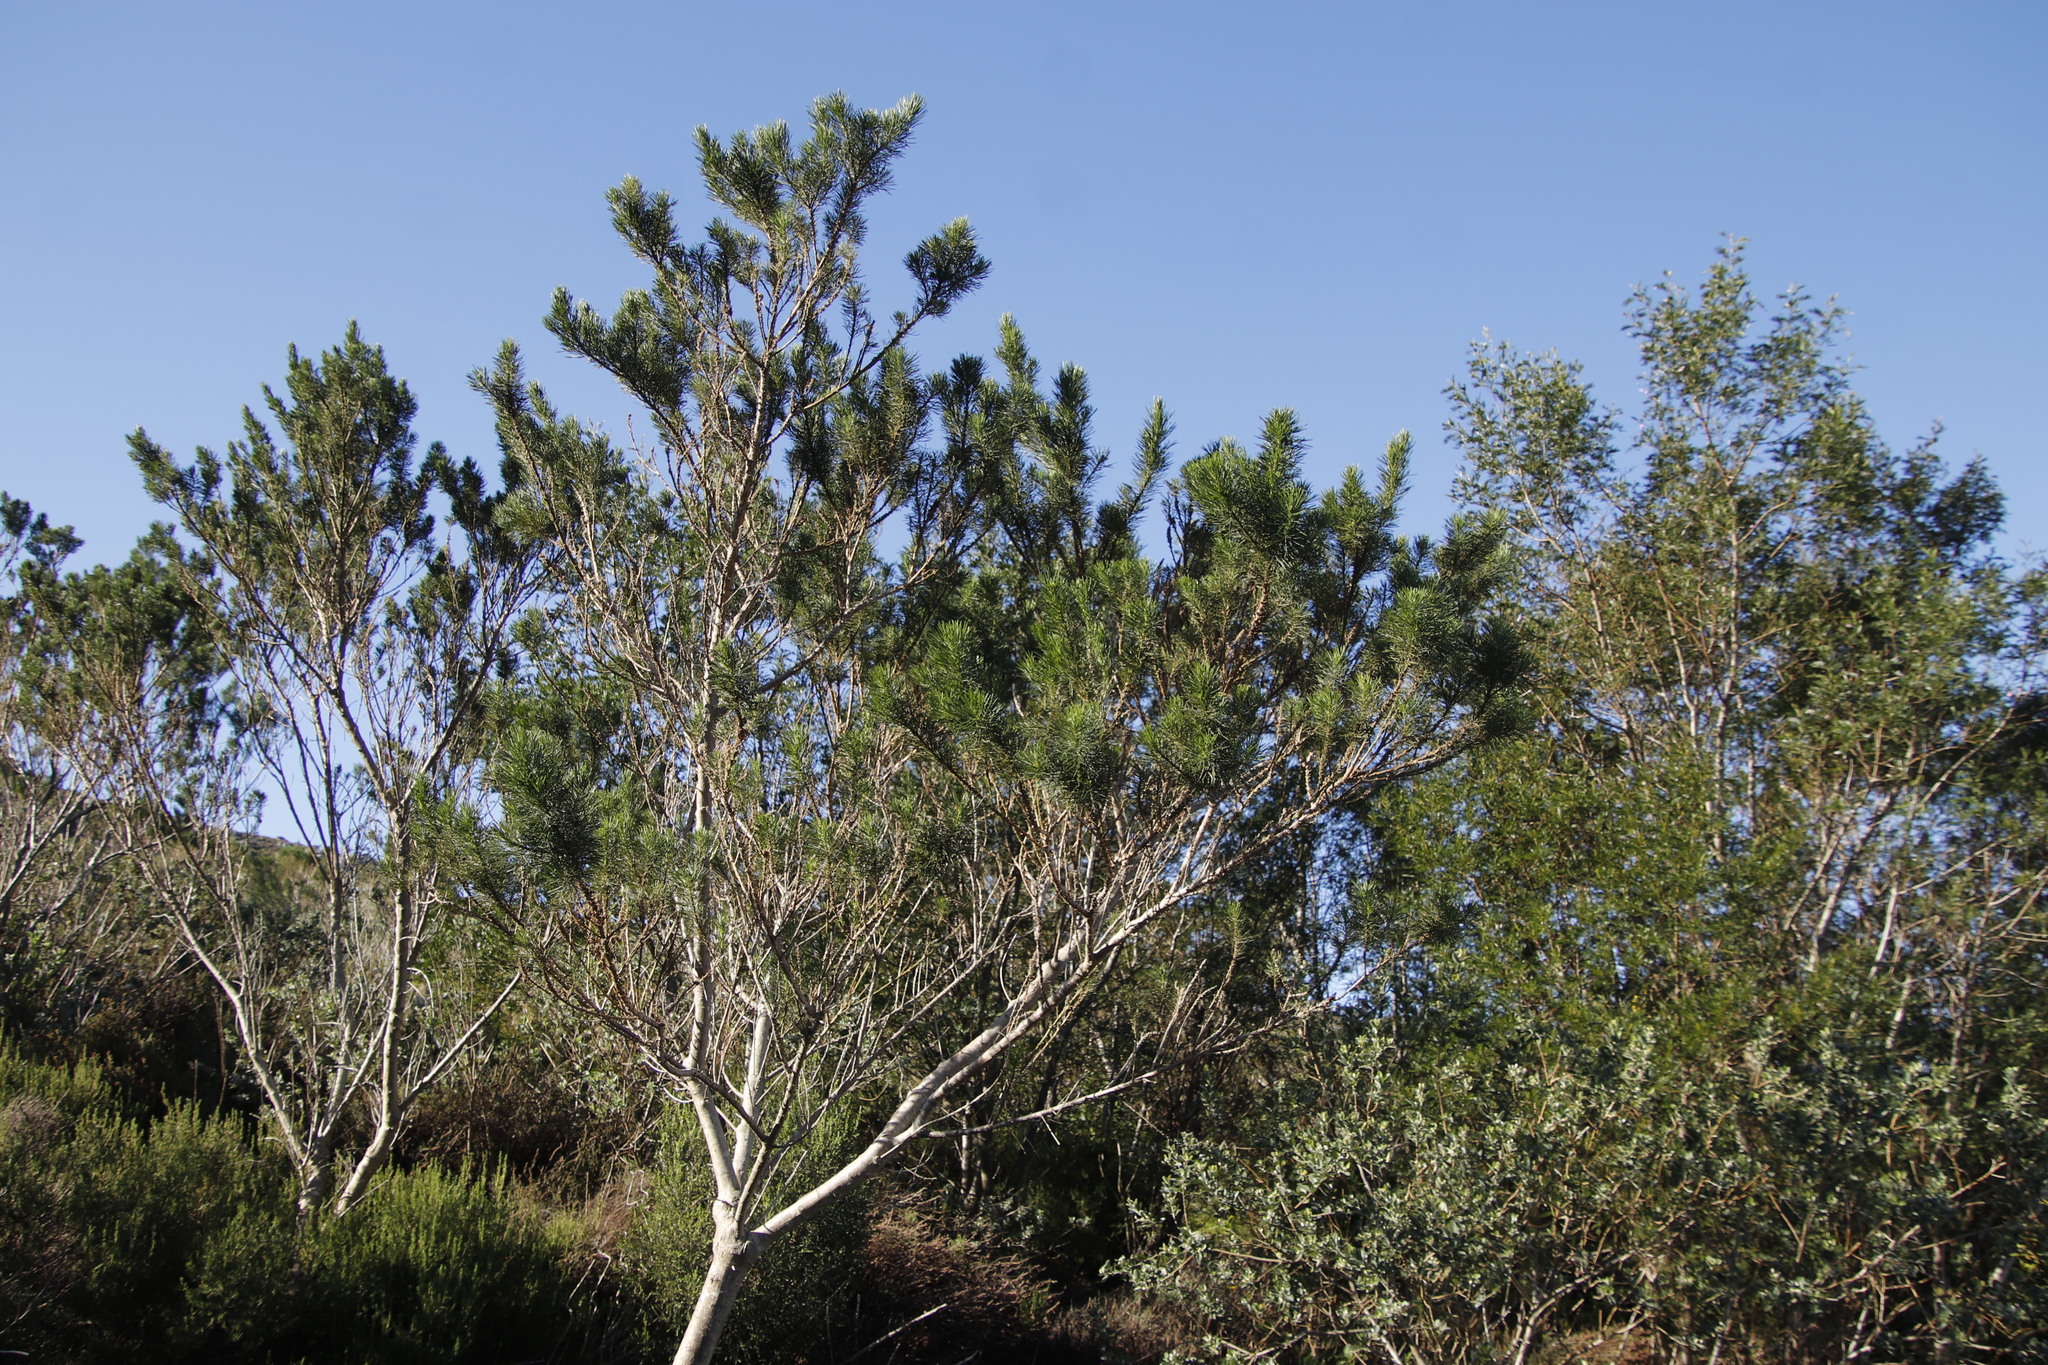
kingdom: Plantae
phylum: Tracheophyta
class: Magnoliopsida
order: Fabales
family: Fabaceae
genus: Psoralea
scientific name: Psoralea pinnata
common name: African scurfpea
